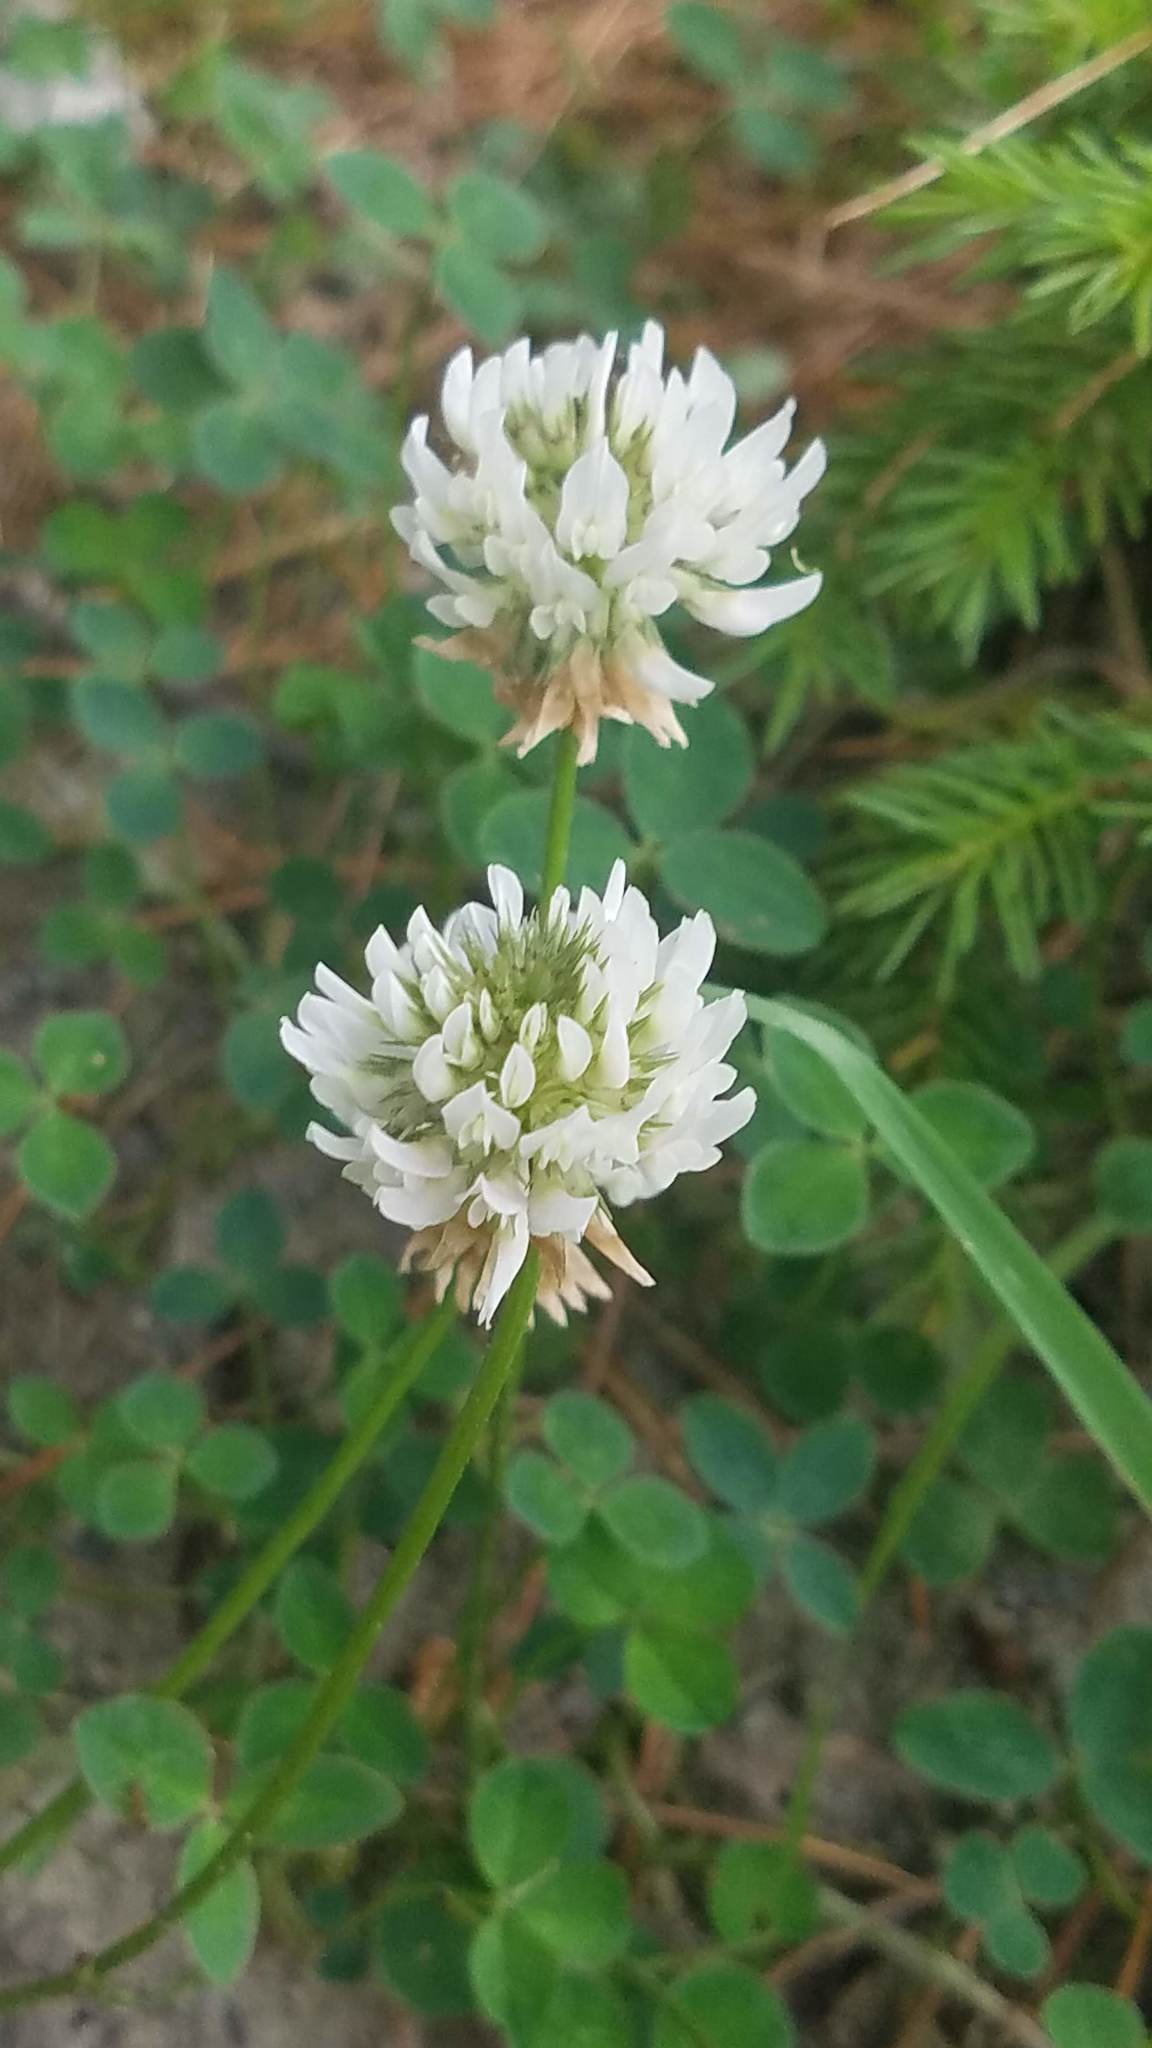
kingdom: Plantae
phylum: Tracheophyta
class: Magnoliopsida
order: Fabales
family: Fabaceae
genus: Trifolium
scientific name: Trifolium repens
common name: White clover
